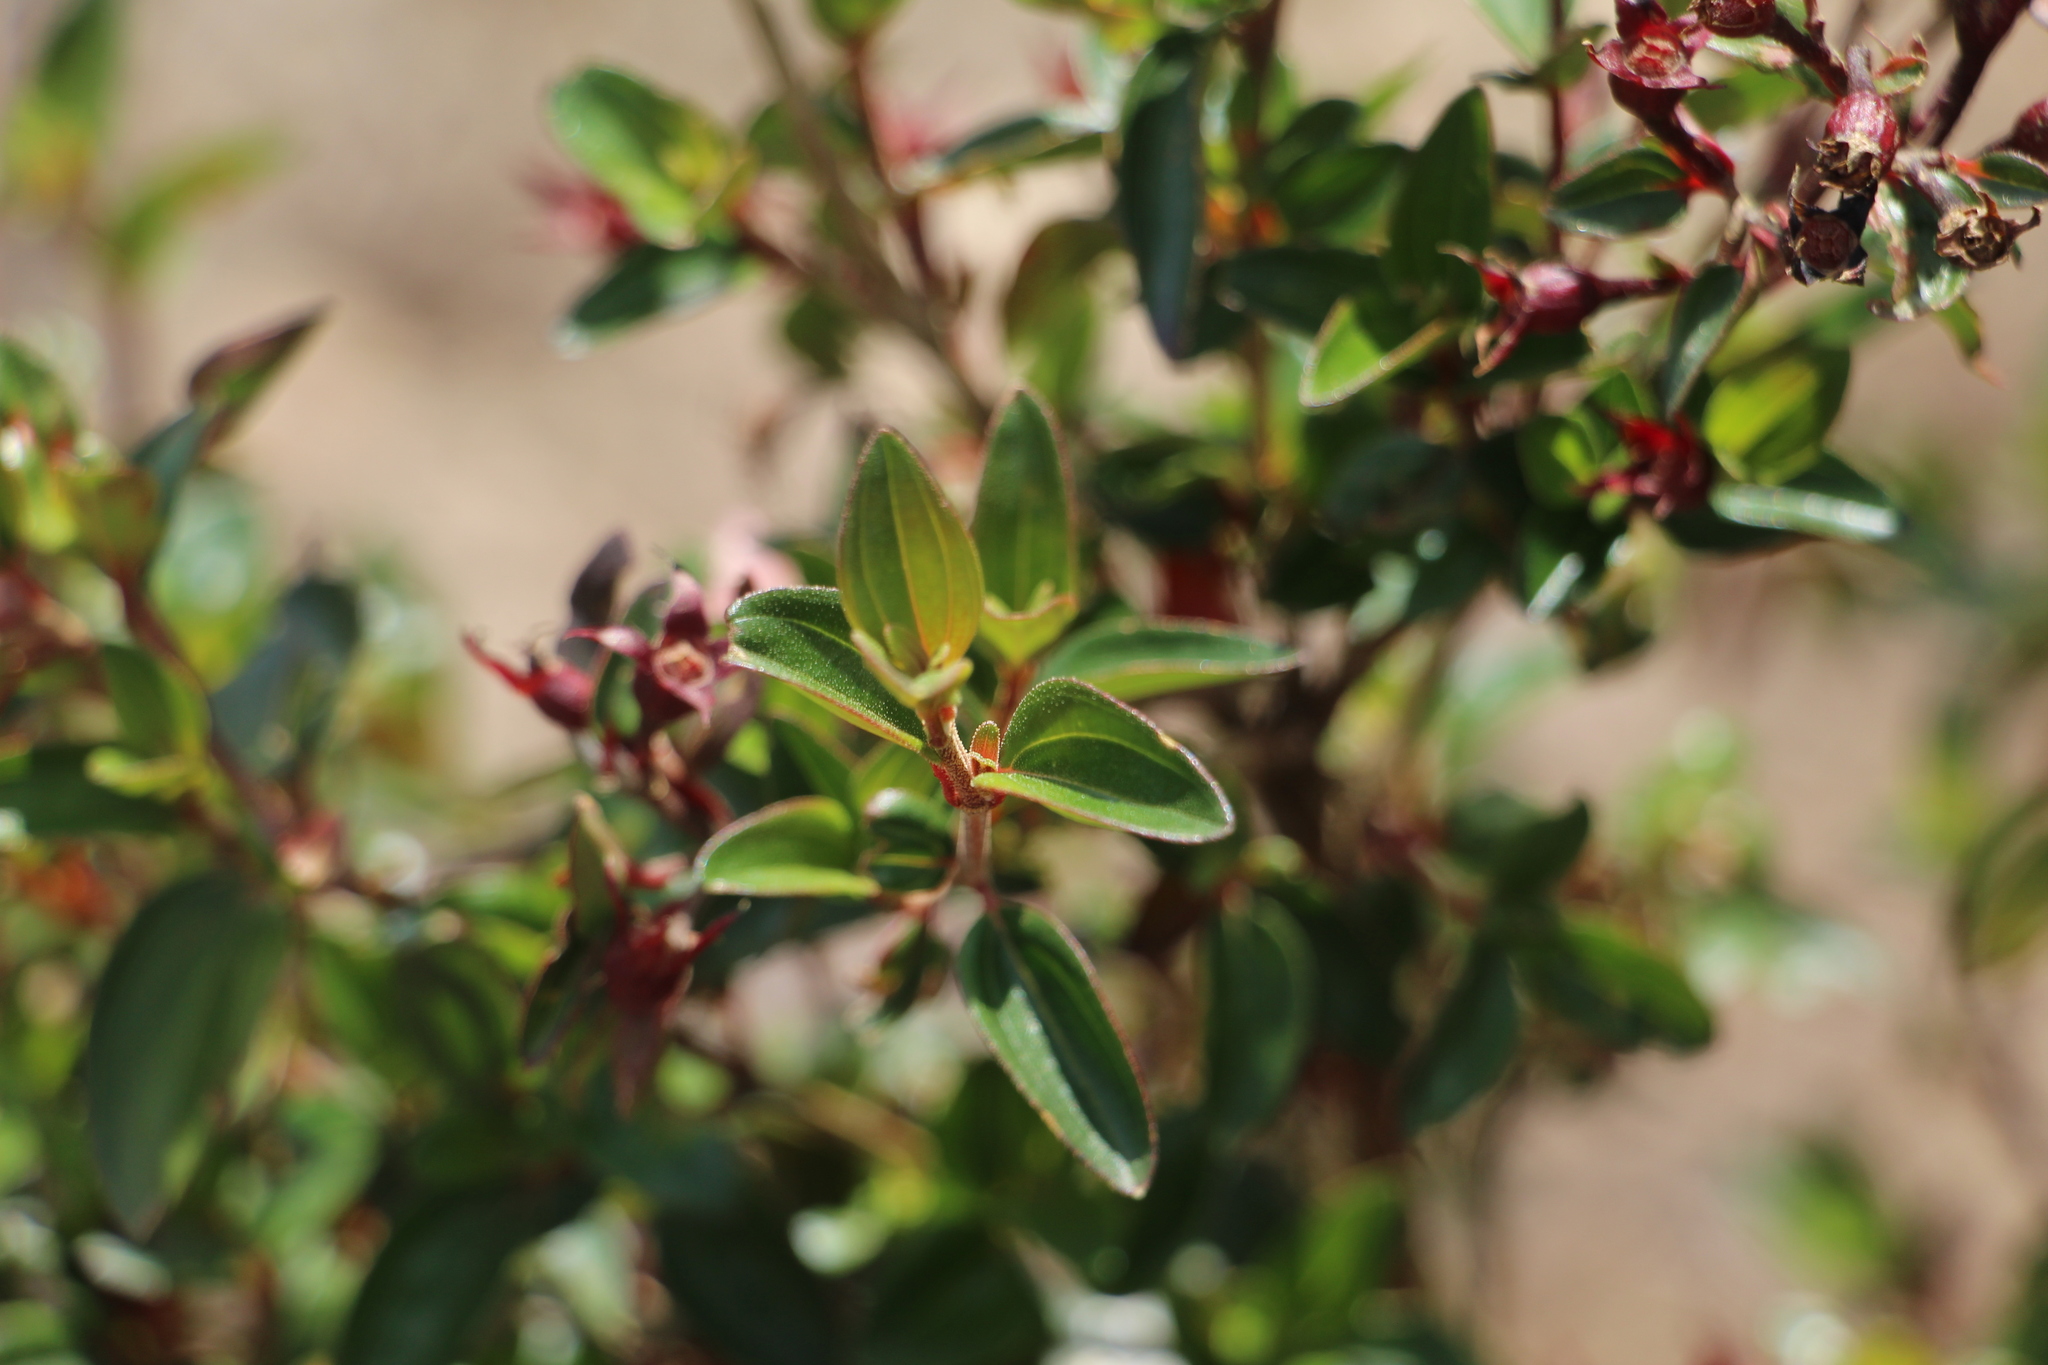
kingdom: Plantae
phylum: Tracheophyta
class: Magnoliopsida
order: Myrtales
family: Melastomataceae
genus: Monochaetum
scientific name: Monochaetum myrtoideum
